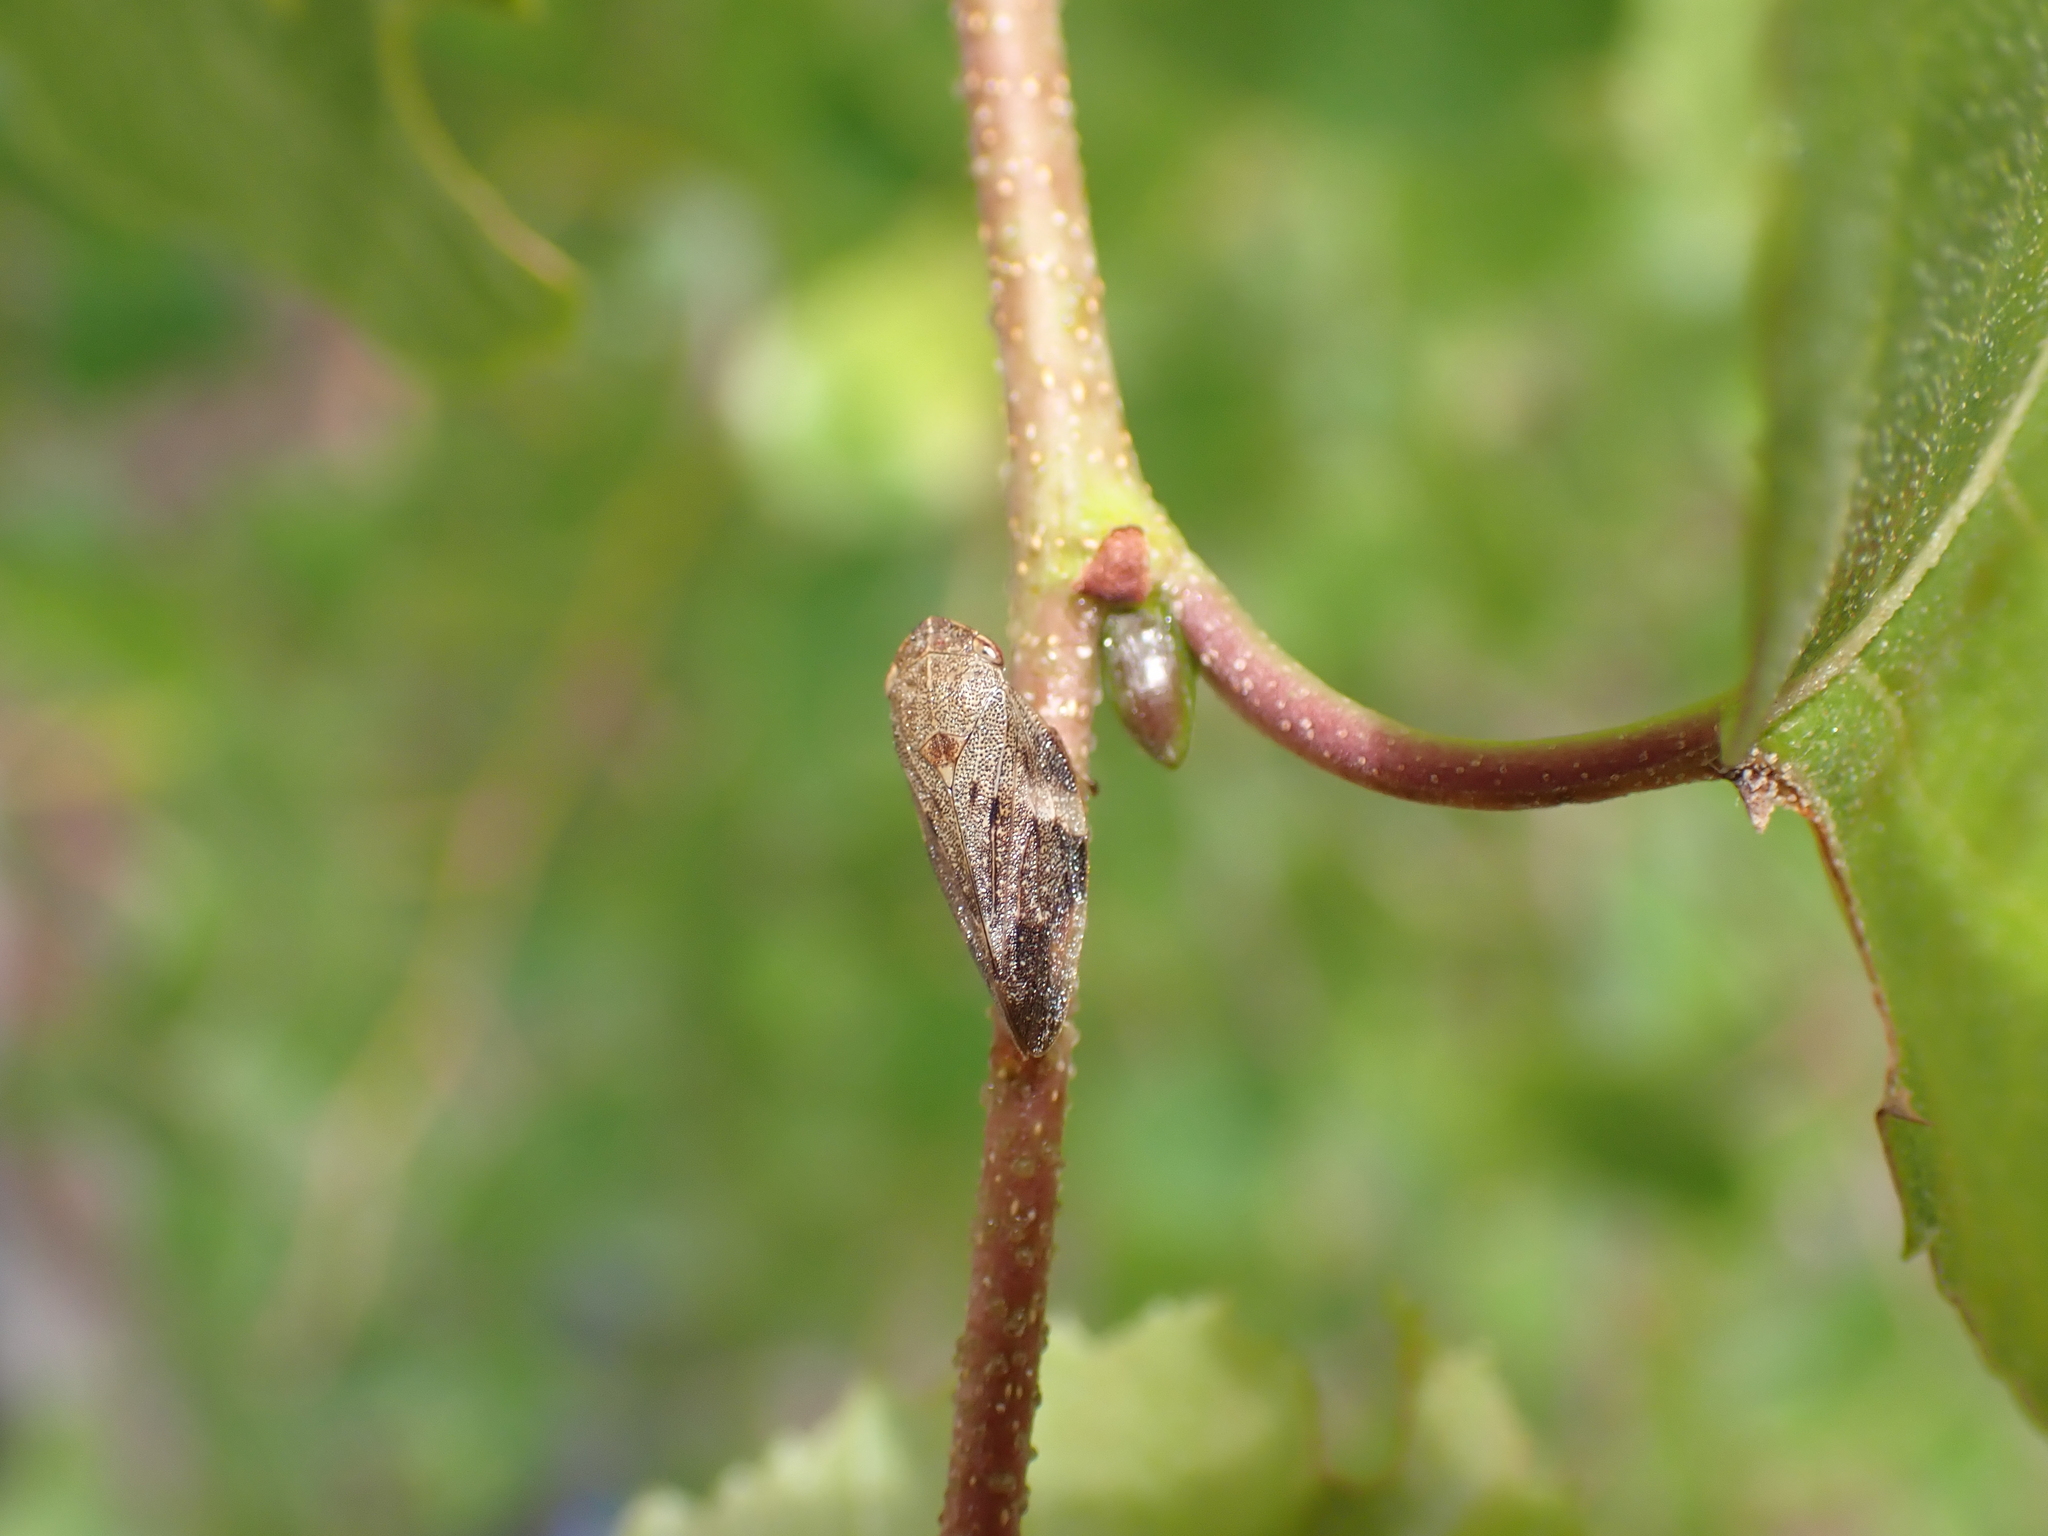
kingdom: Animalia
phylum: Arthropoda
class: Insecta
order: Hemiptera
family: Aphrophoridae
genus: Aphrophora
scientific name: Aphrophora alni
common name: European alder spittlebug
